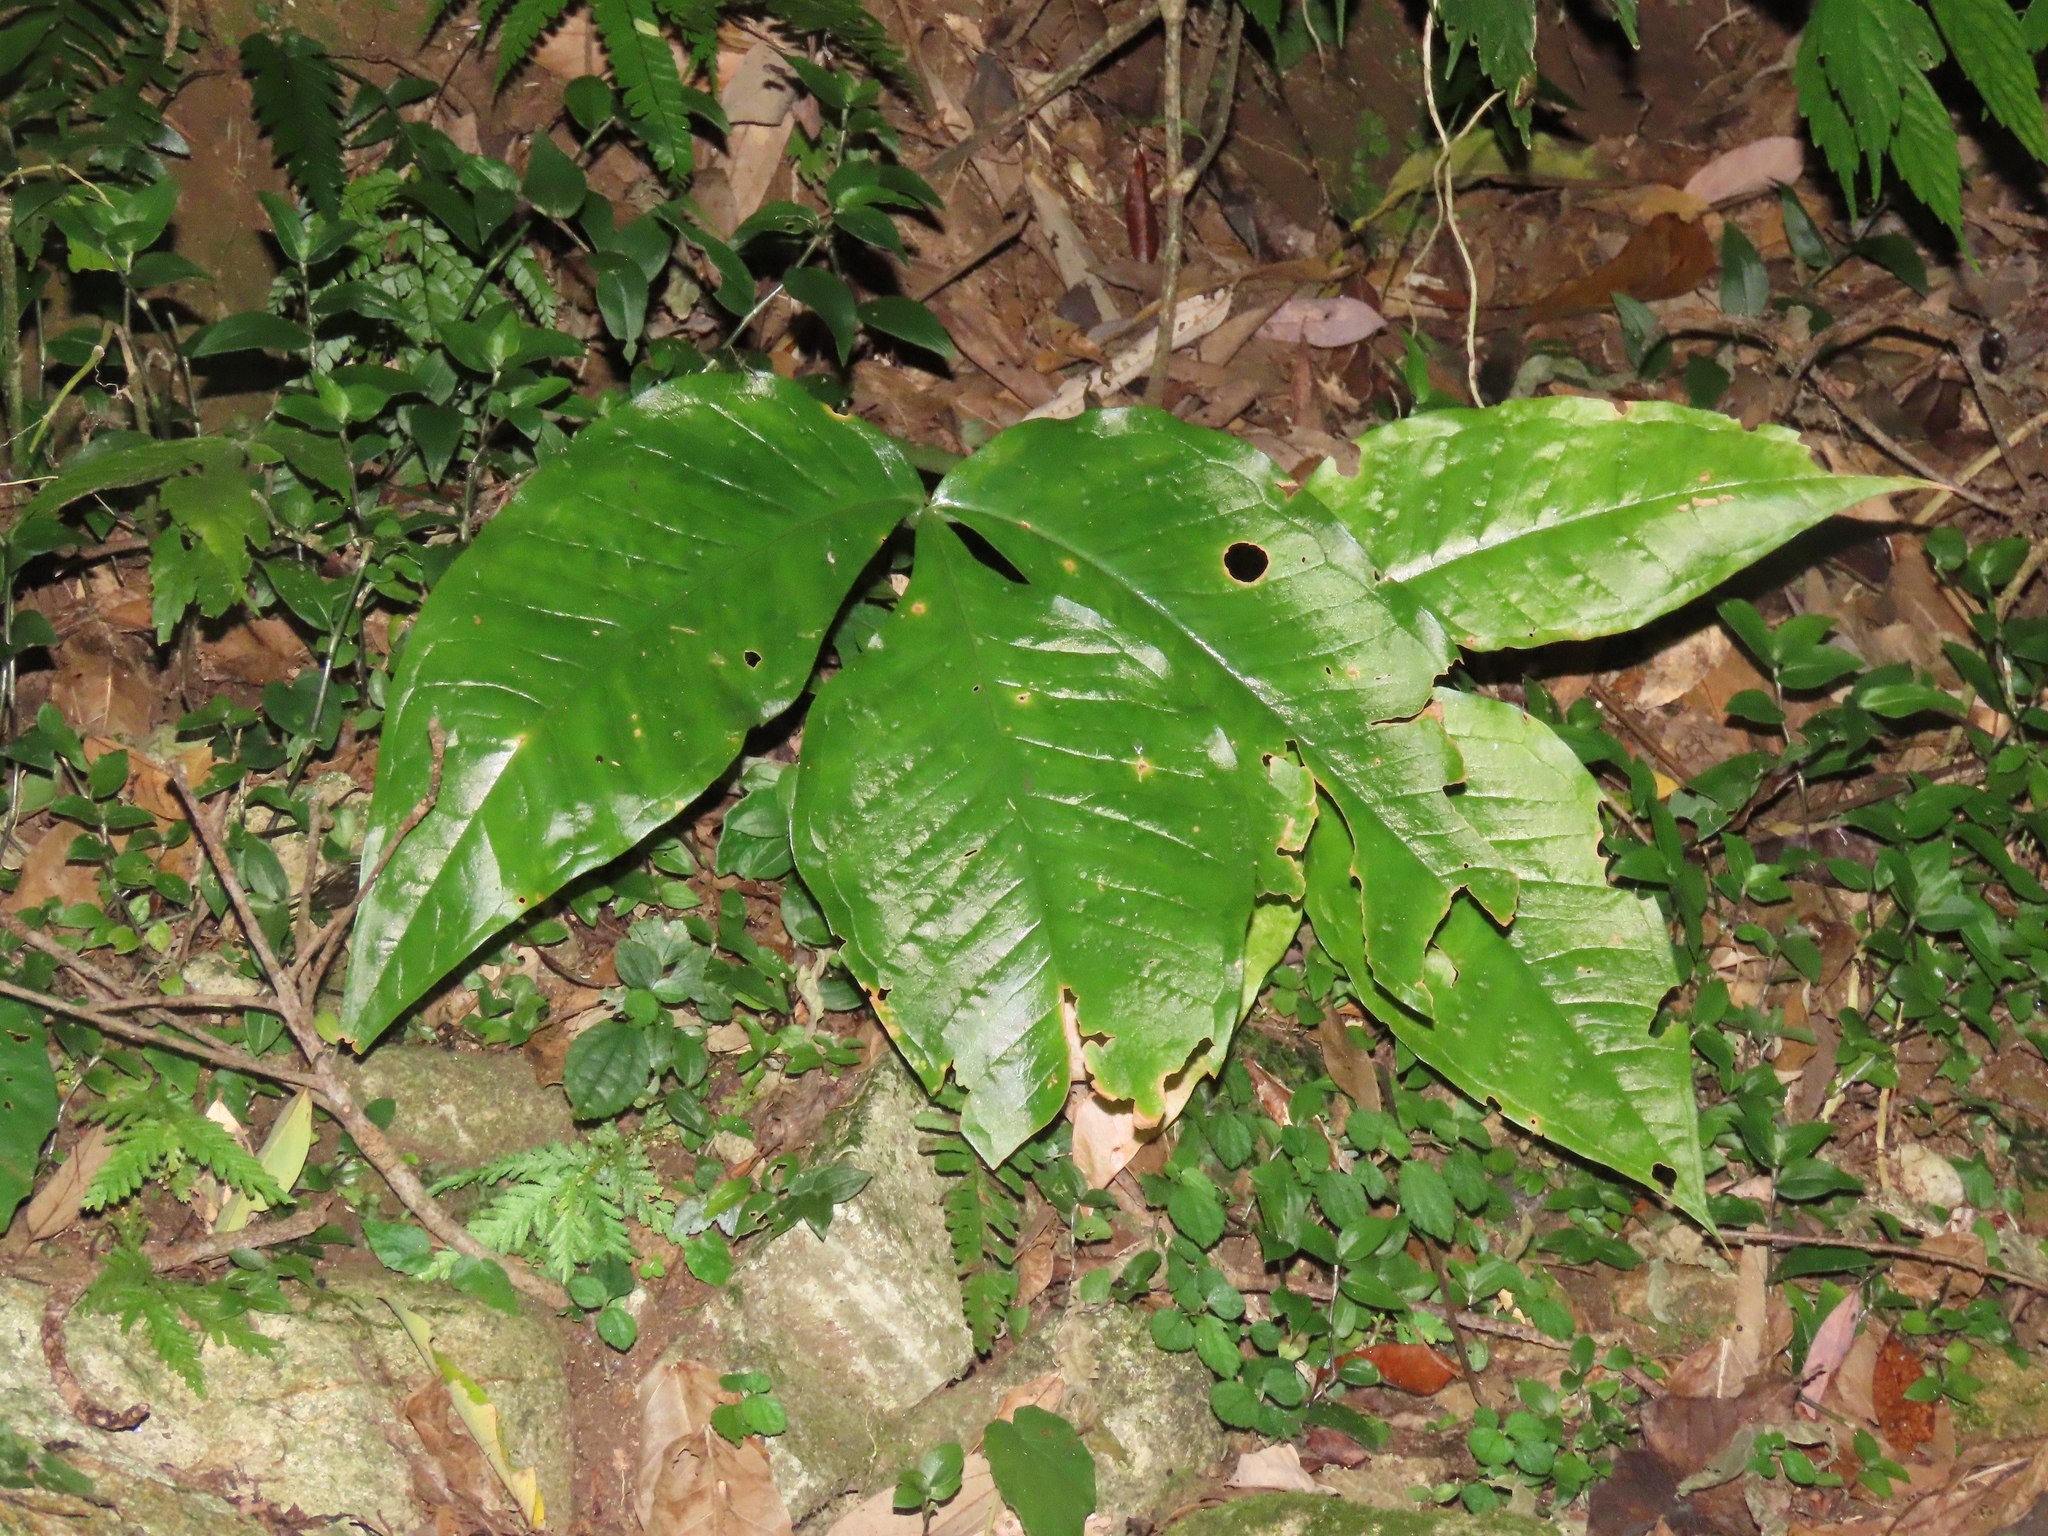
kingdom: Plantae
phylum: Tracheophyta
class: Liliopsida
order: Alismatales
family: Araceae
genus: Arisaema
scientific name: Arisaema ringens
